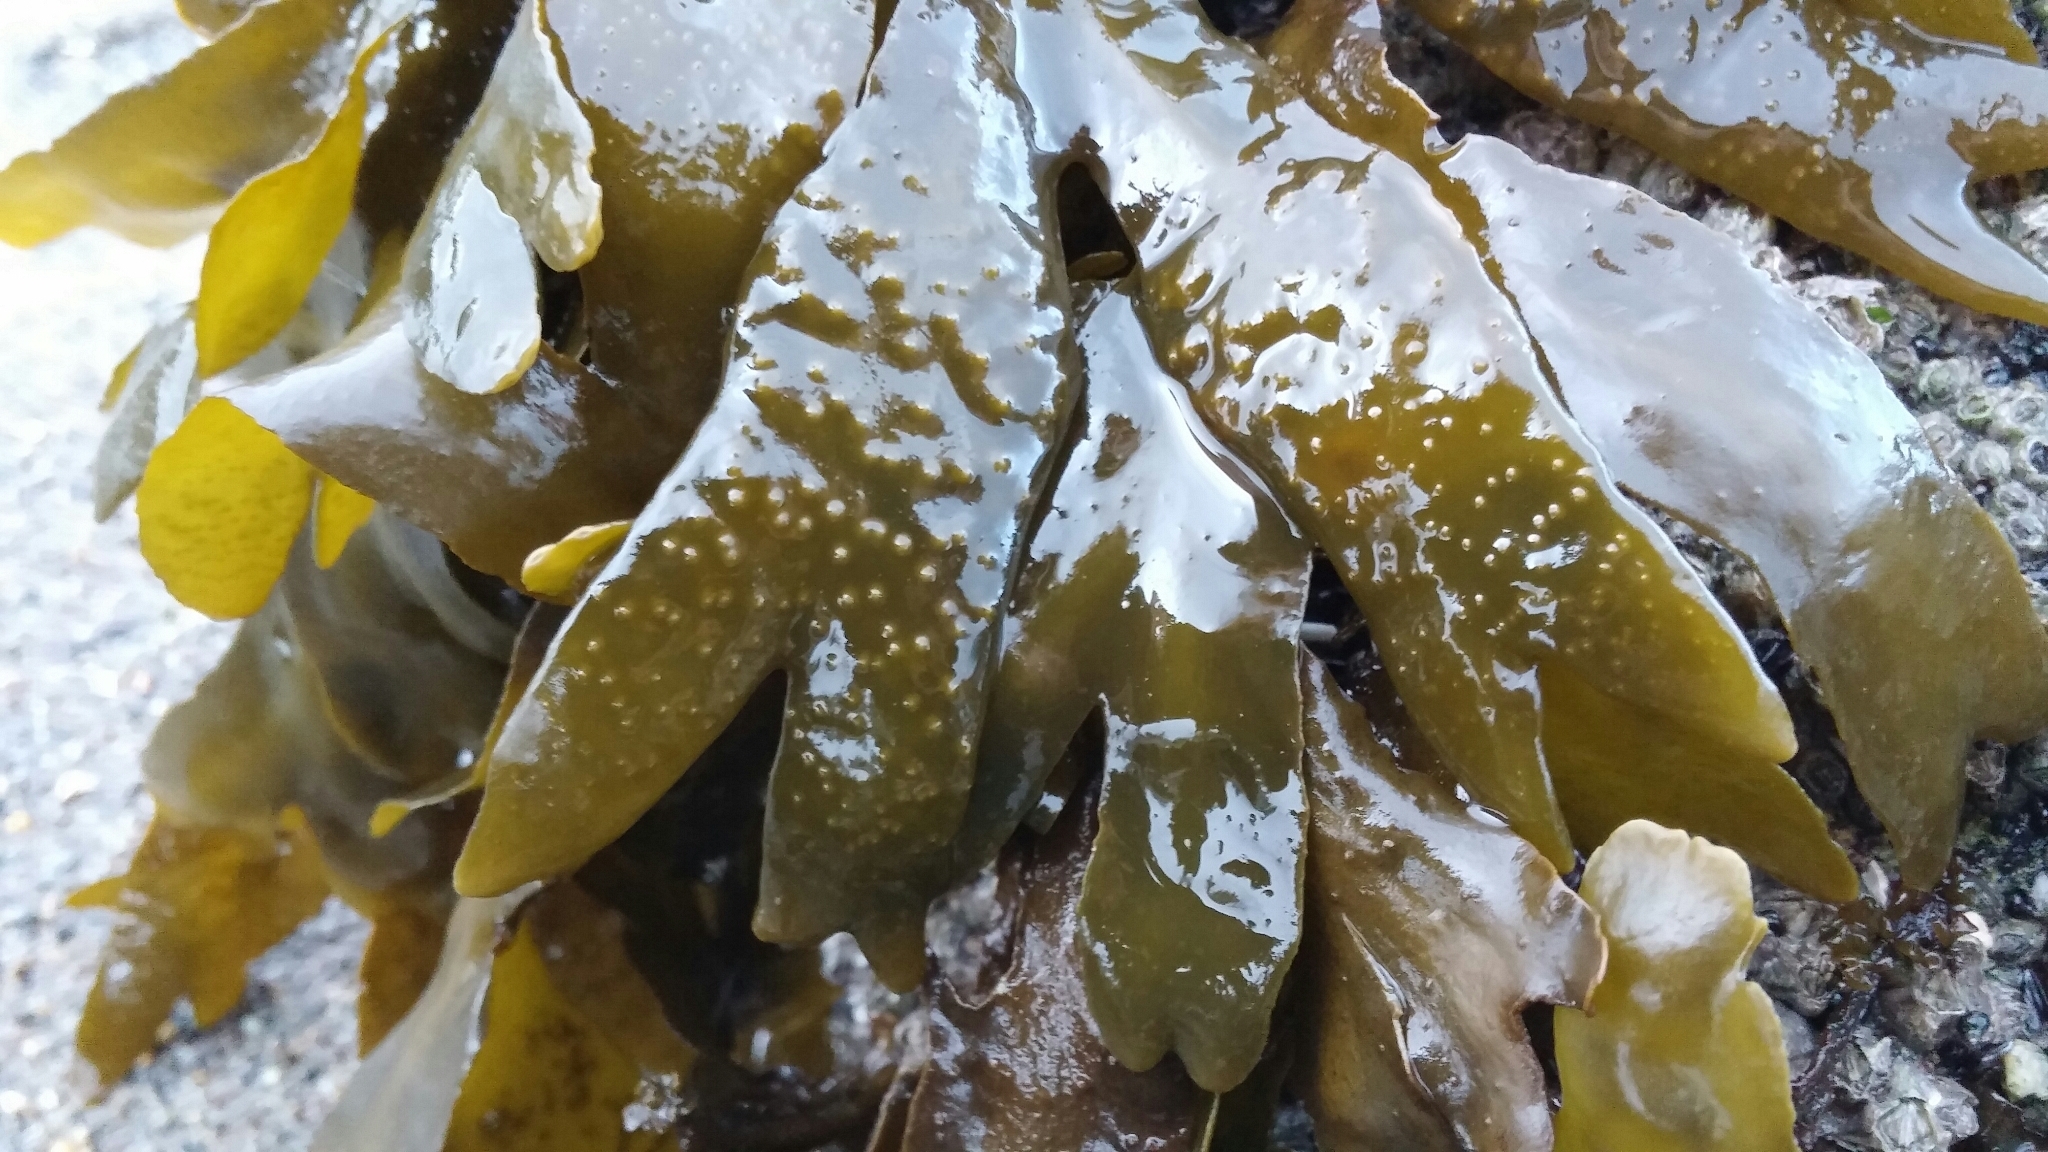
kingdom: Chromista
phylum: Ochrophyta
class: Phaeophyceae
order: Fucales
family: Fucaceae
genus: Fucus
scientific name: Fucus distichus
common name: Rockweed
